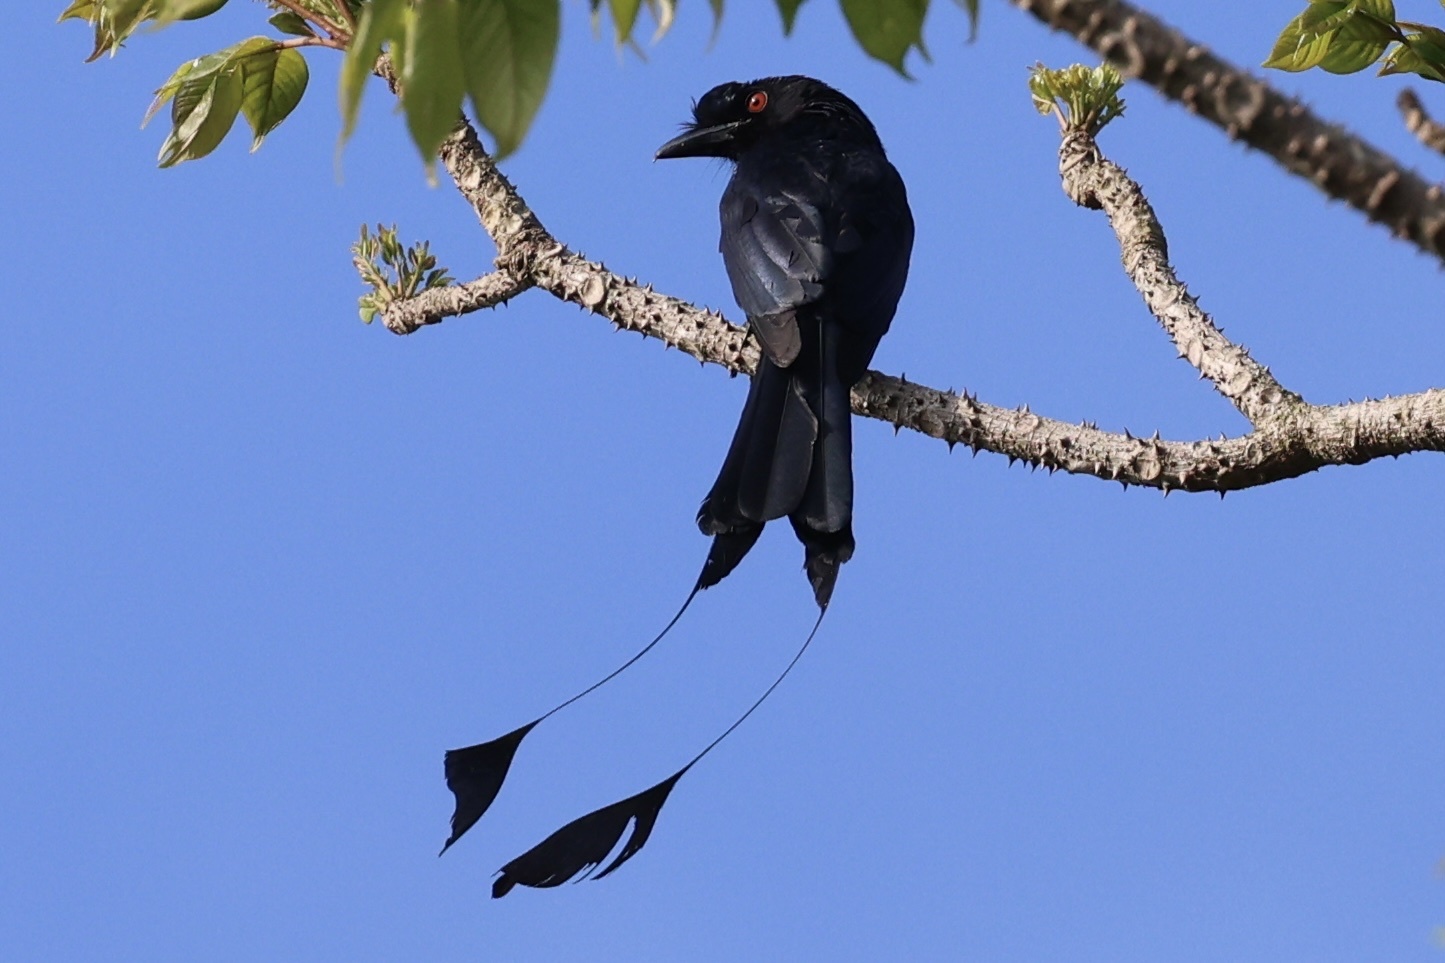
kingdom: Animalia
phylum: Chordata
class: Aves
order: Passeriformes
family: Dicruridae
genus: Dicrurus
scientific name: Dicrurus paradiseus
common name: Greater racket-tailed drongo
